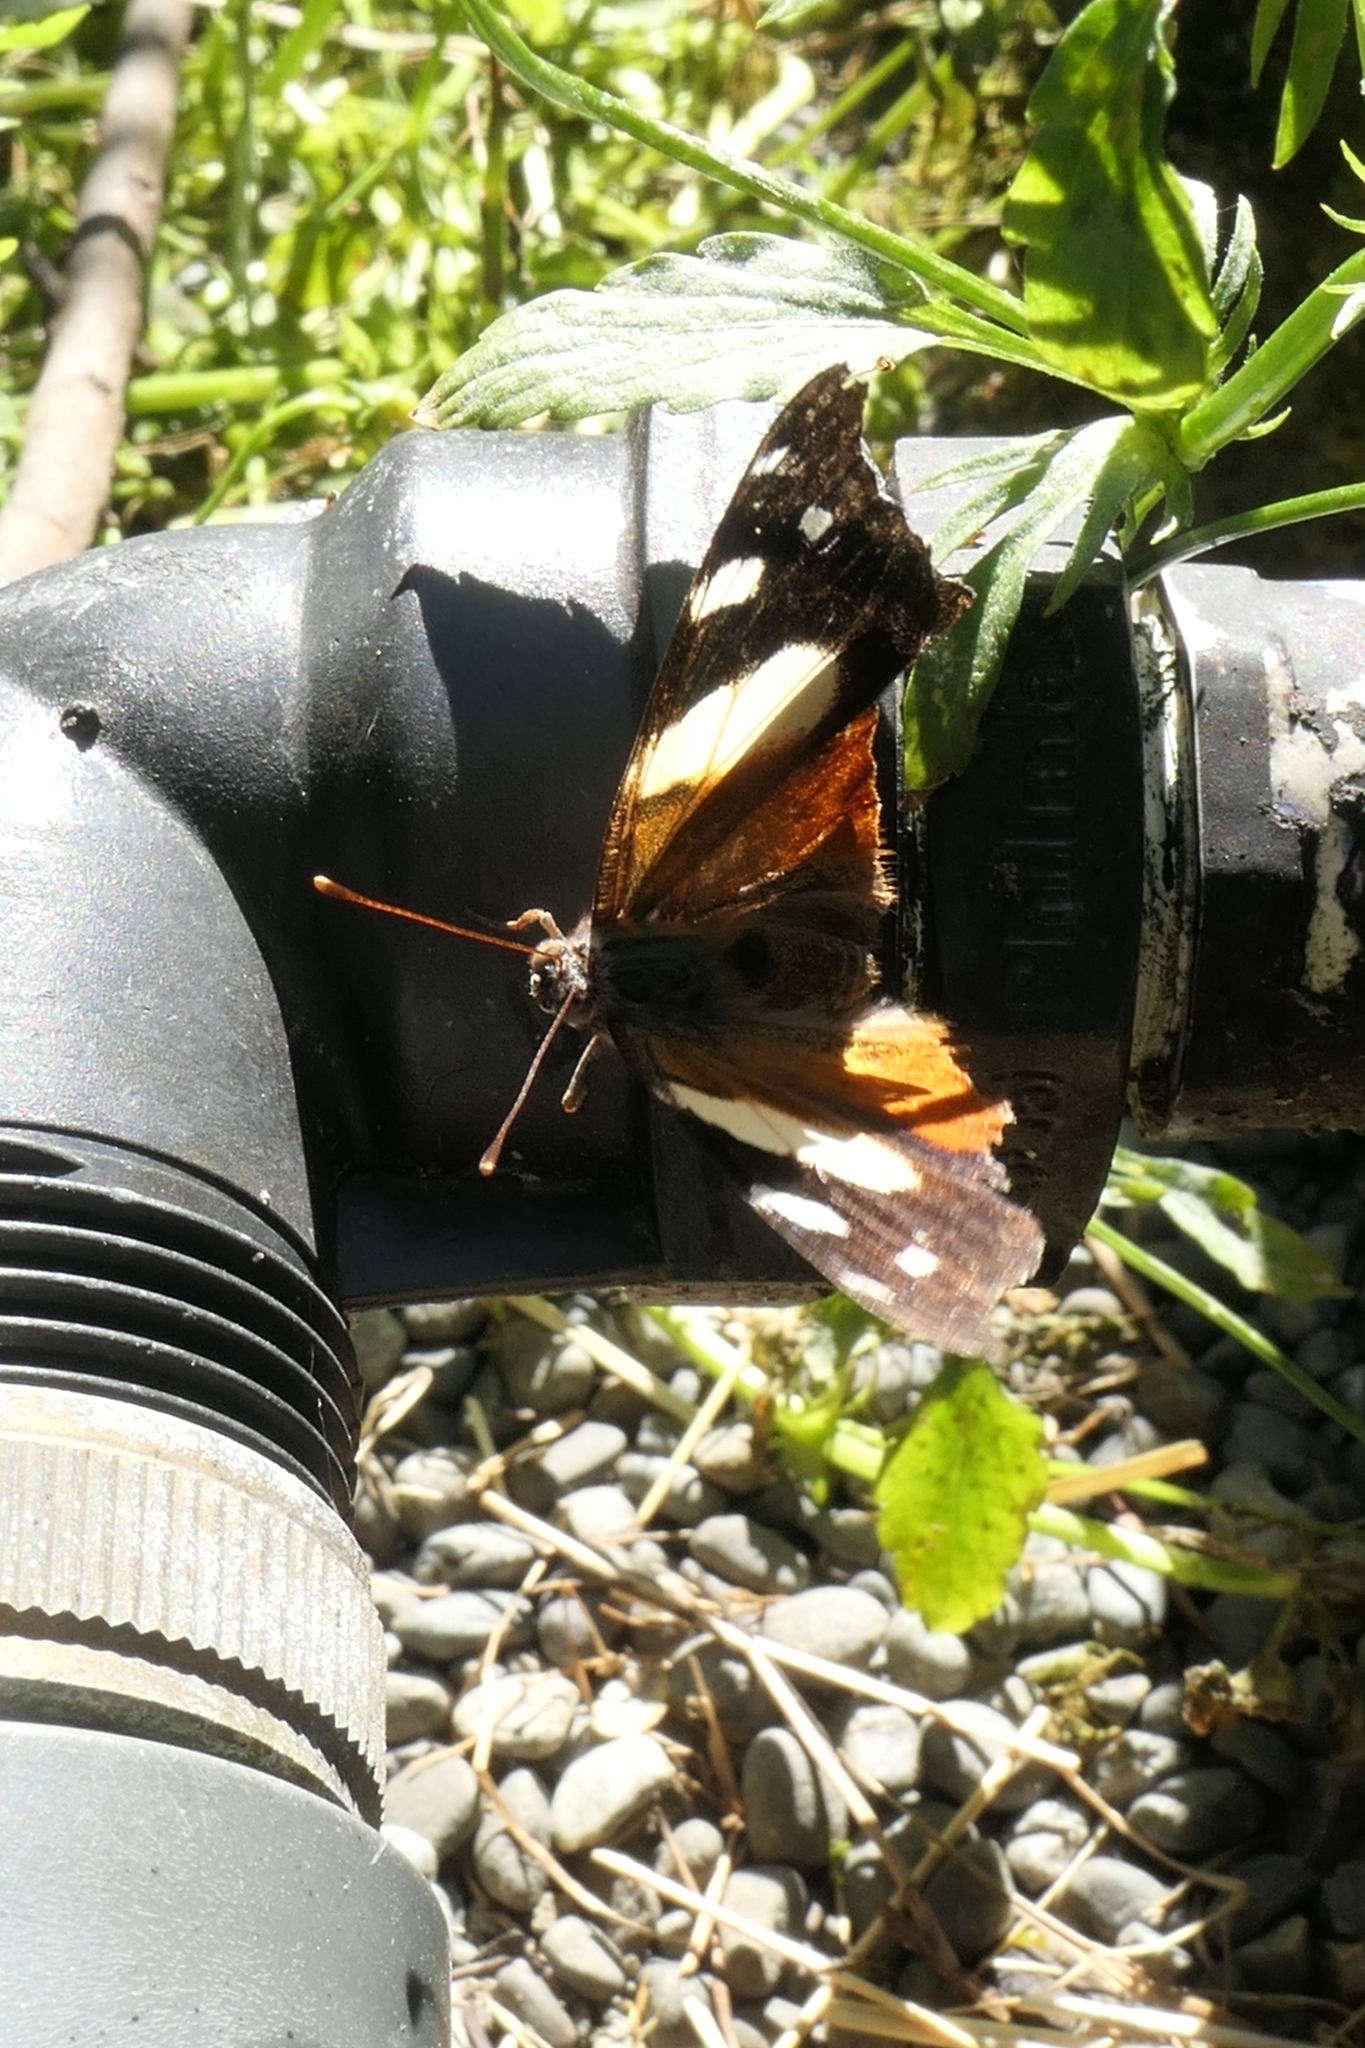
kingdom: Animalia
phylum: Arthropoda
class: Insecta
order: Lepidoptera
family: Nymphalidae
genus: Vanessa
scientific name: Vanessa itea
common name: Yellow admiral
